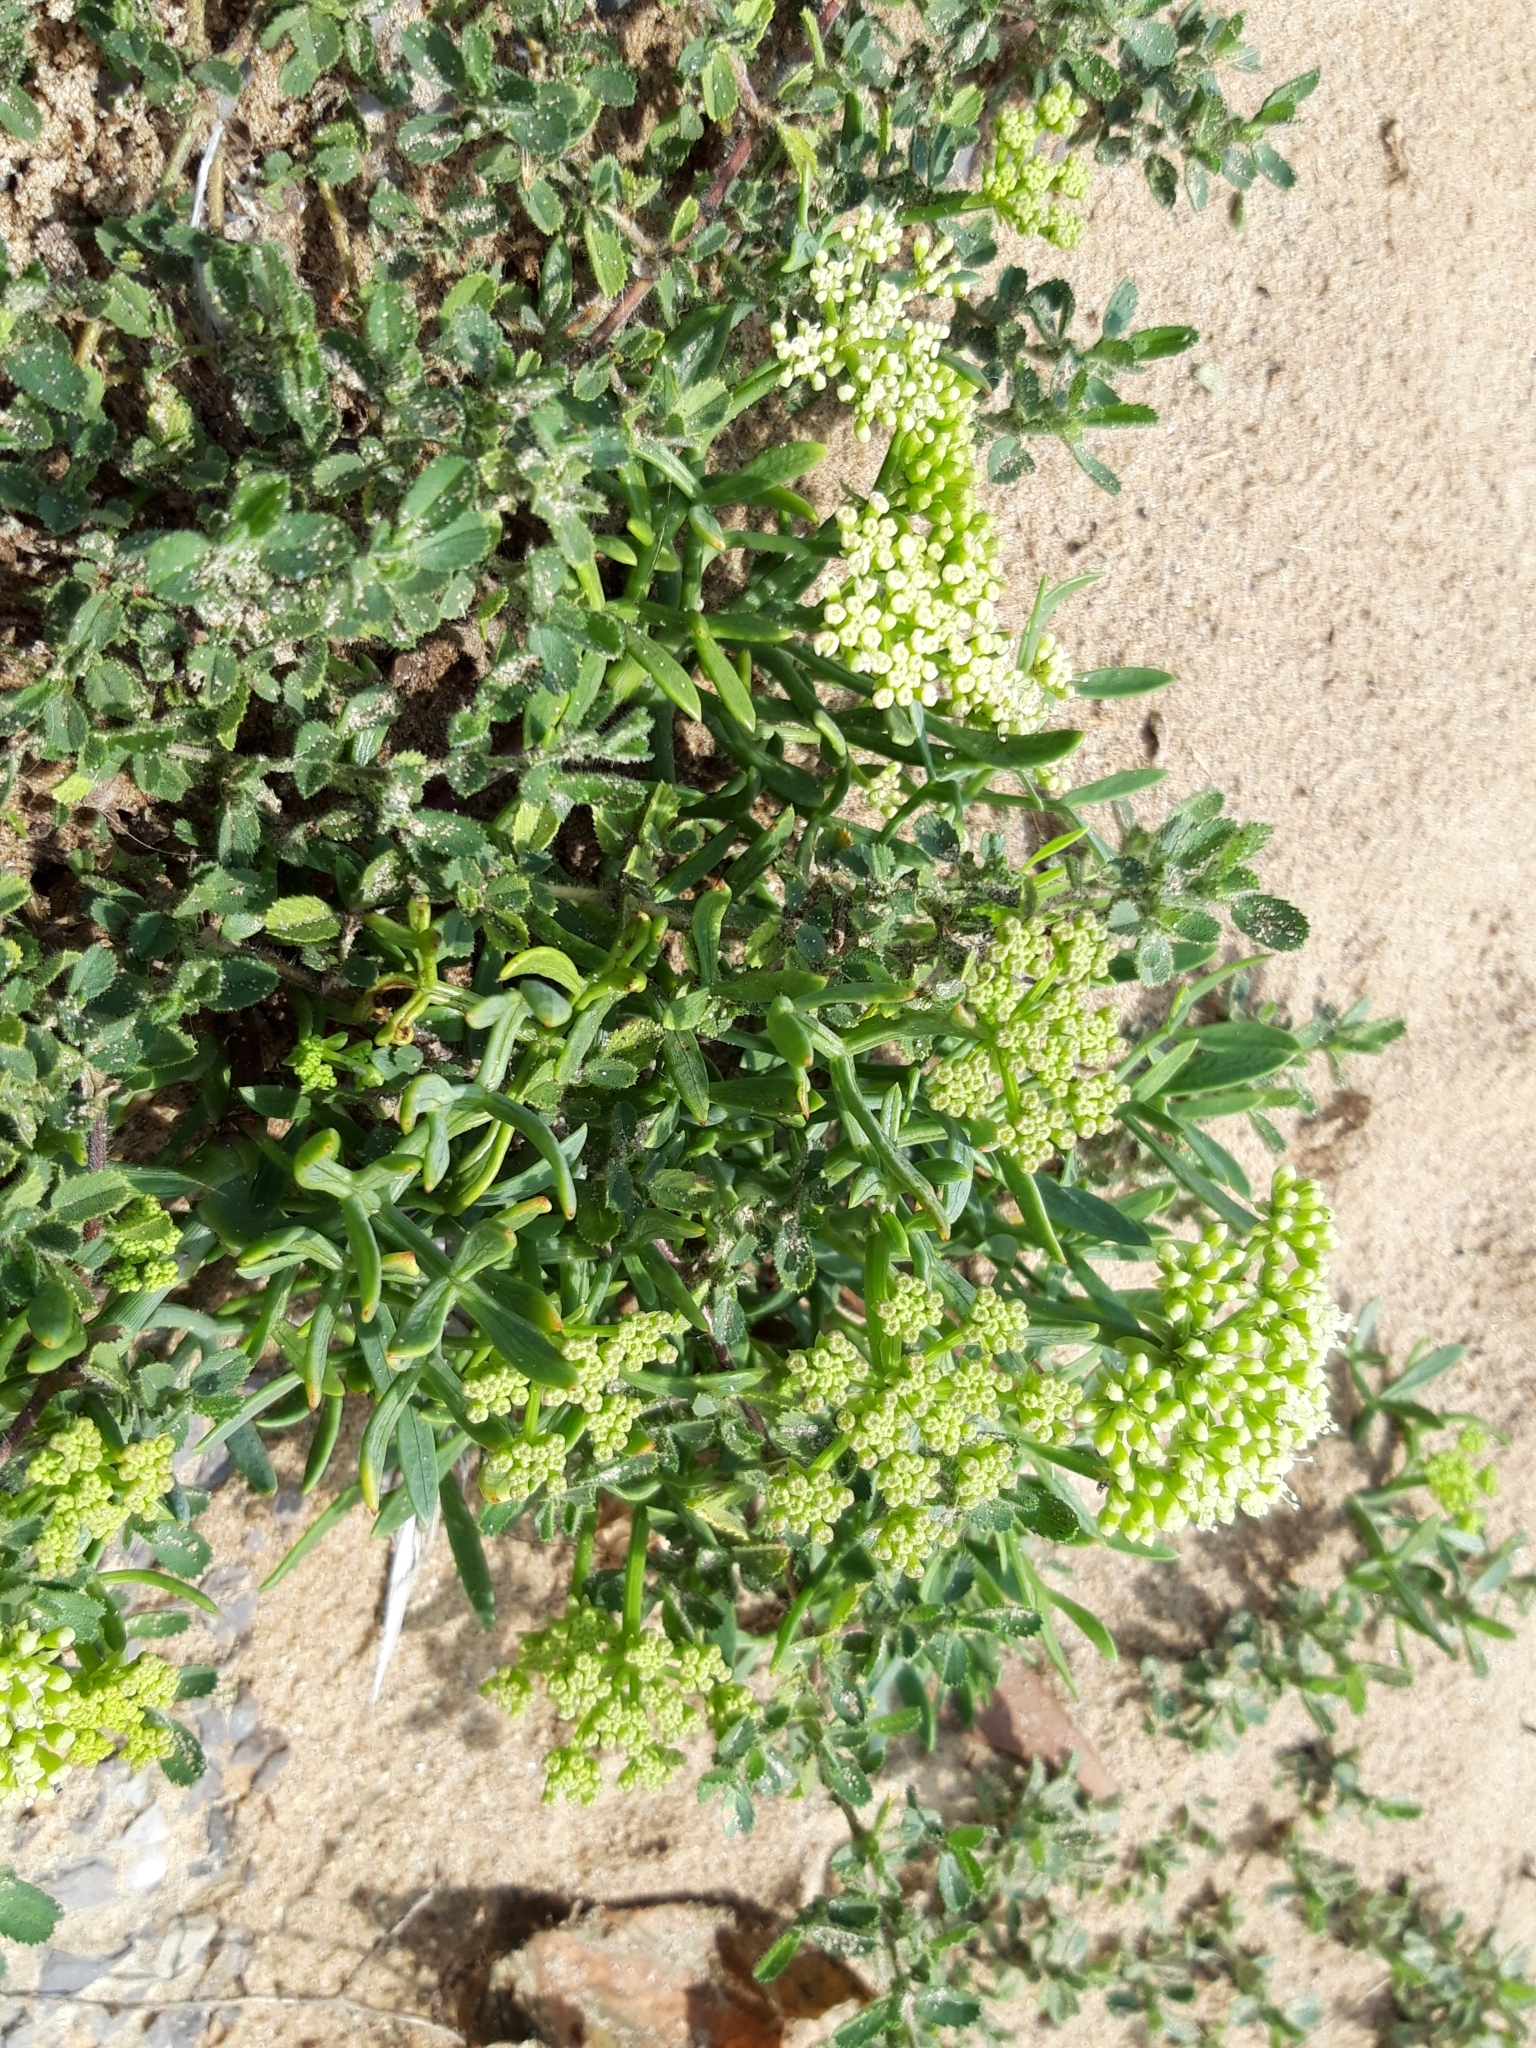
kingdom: Plantae
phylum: Tracheophyta
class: Magnoliopsida
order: Apiales
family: Apiaceae
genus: Crithmum
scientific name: Crithmum maritimum
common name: Rock samphire
